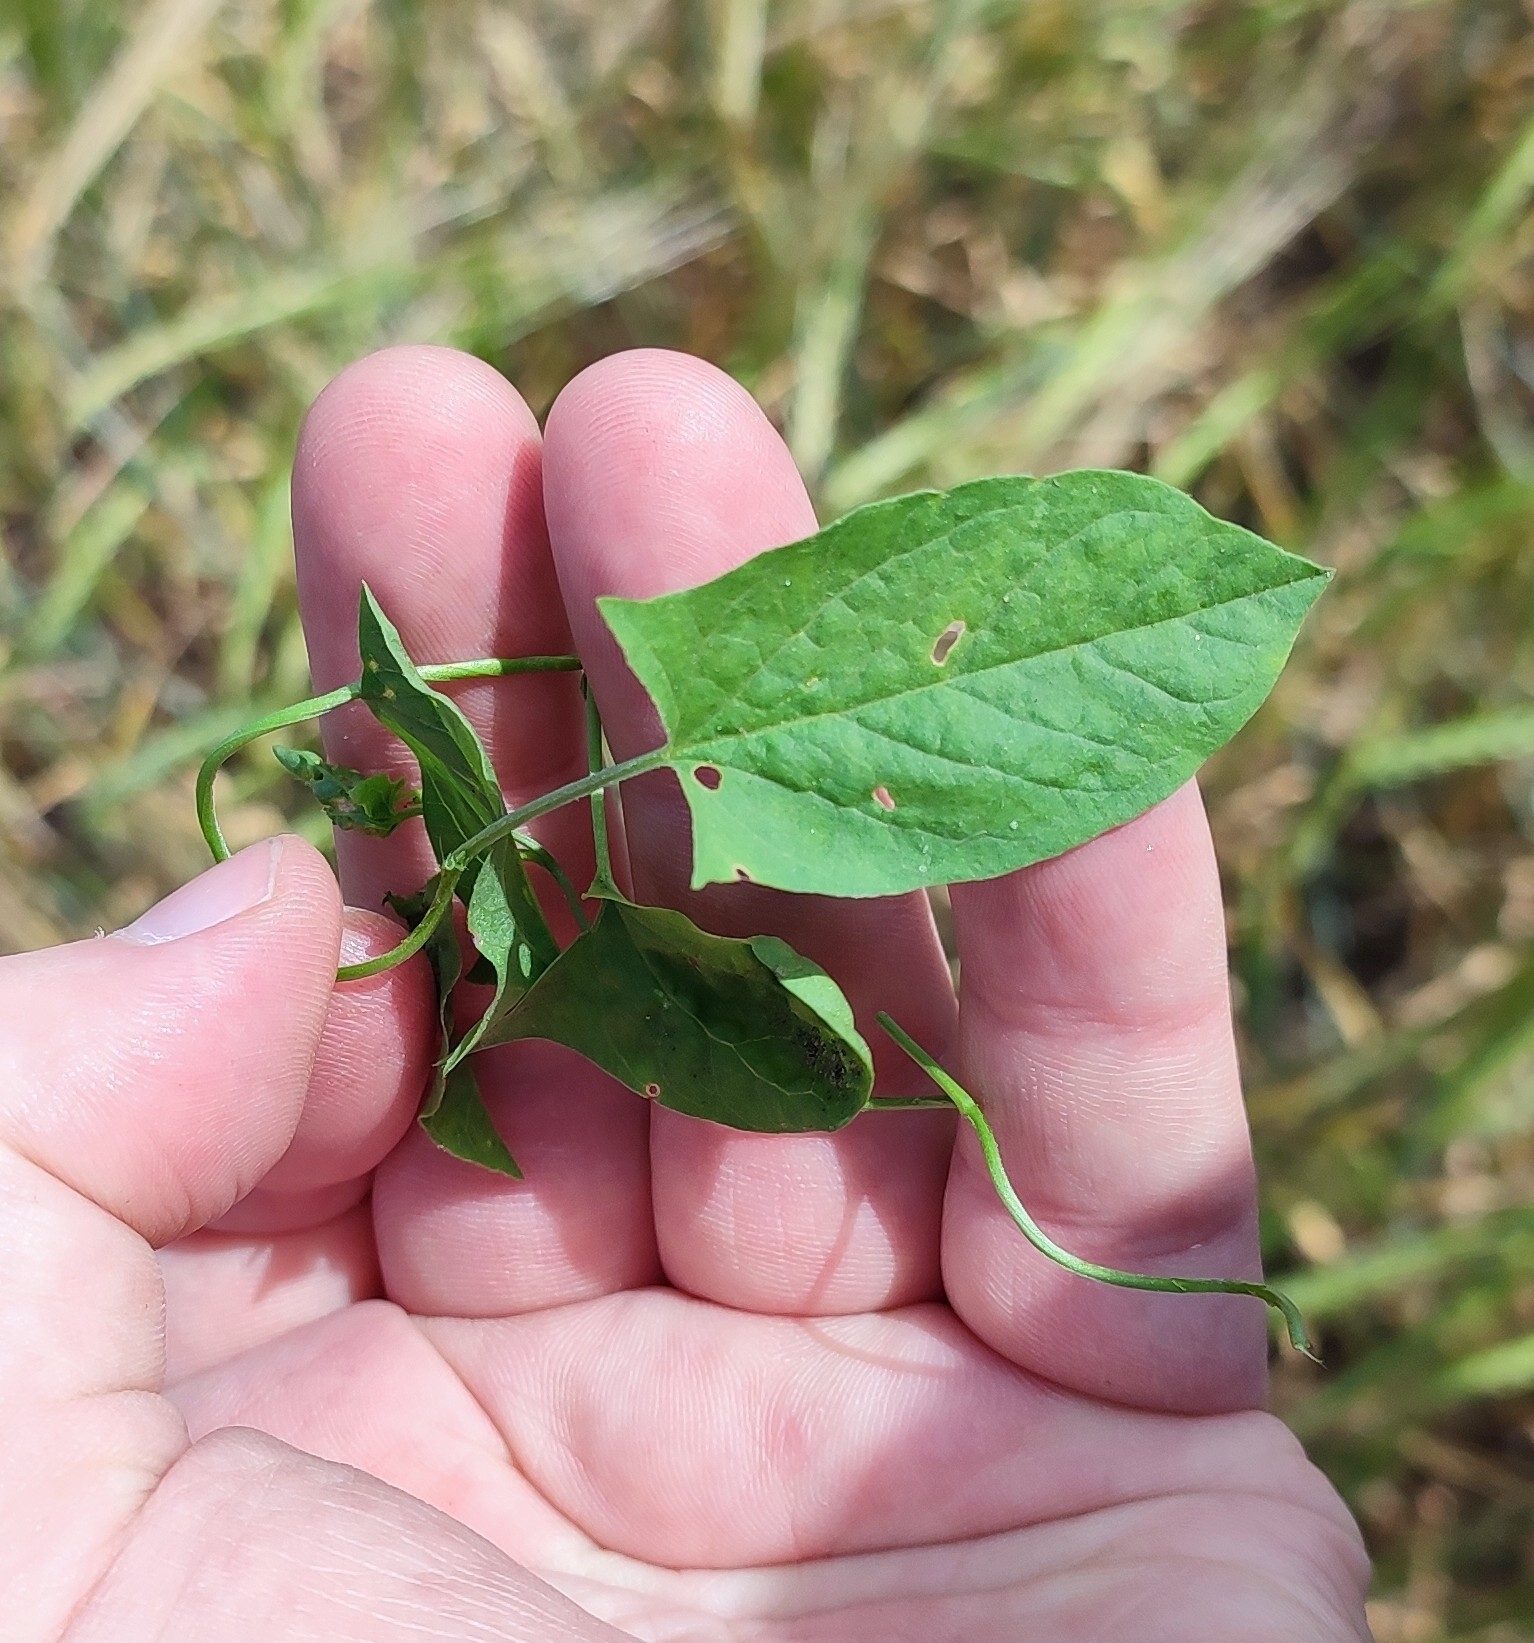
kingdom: Plantae
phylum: Tracheophyta
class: Magnoliopsida
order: Solanales
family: Convolvulaceae
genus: Convolvulus
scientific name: Convolvulus arvensis
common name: Field bindweed
